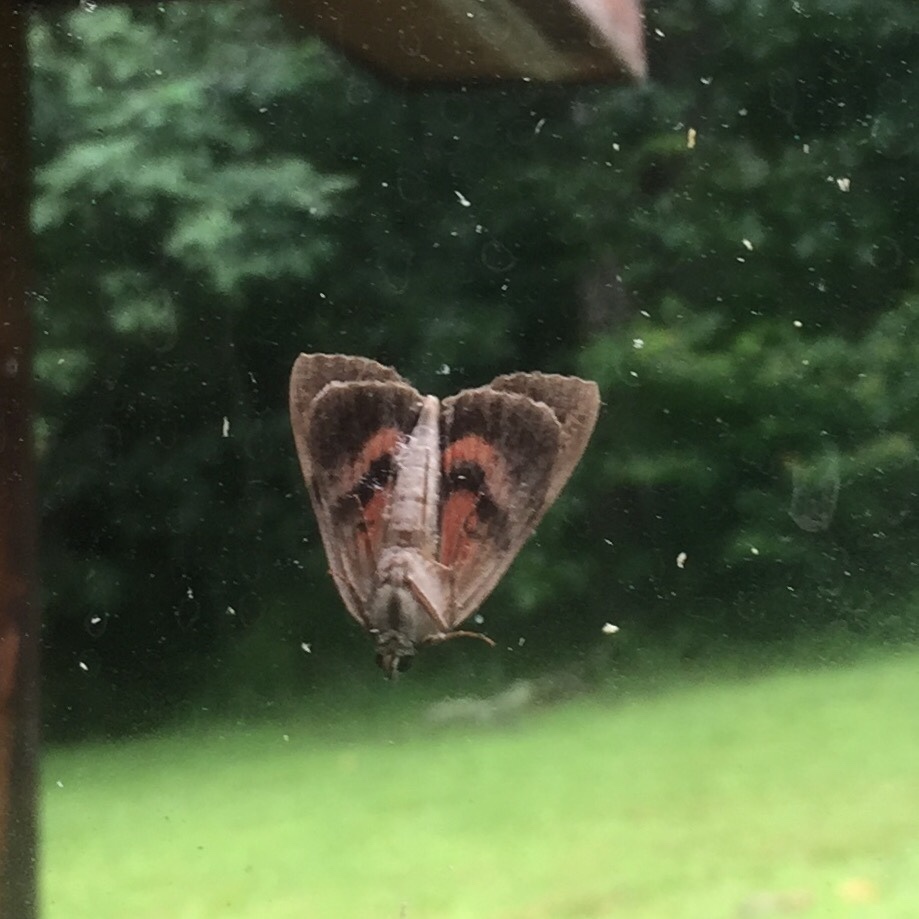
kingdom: Animalia
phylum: Arthropoda
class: Insecta
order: Lepidoptera
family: Erebidae
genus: Catocala
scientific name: Catocala ultronia
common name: Ultronia underwing
